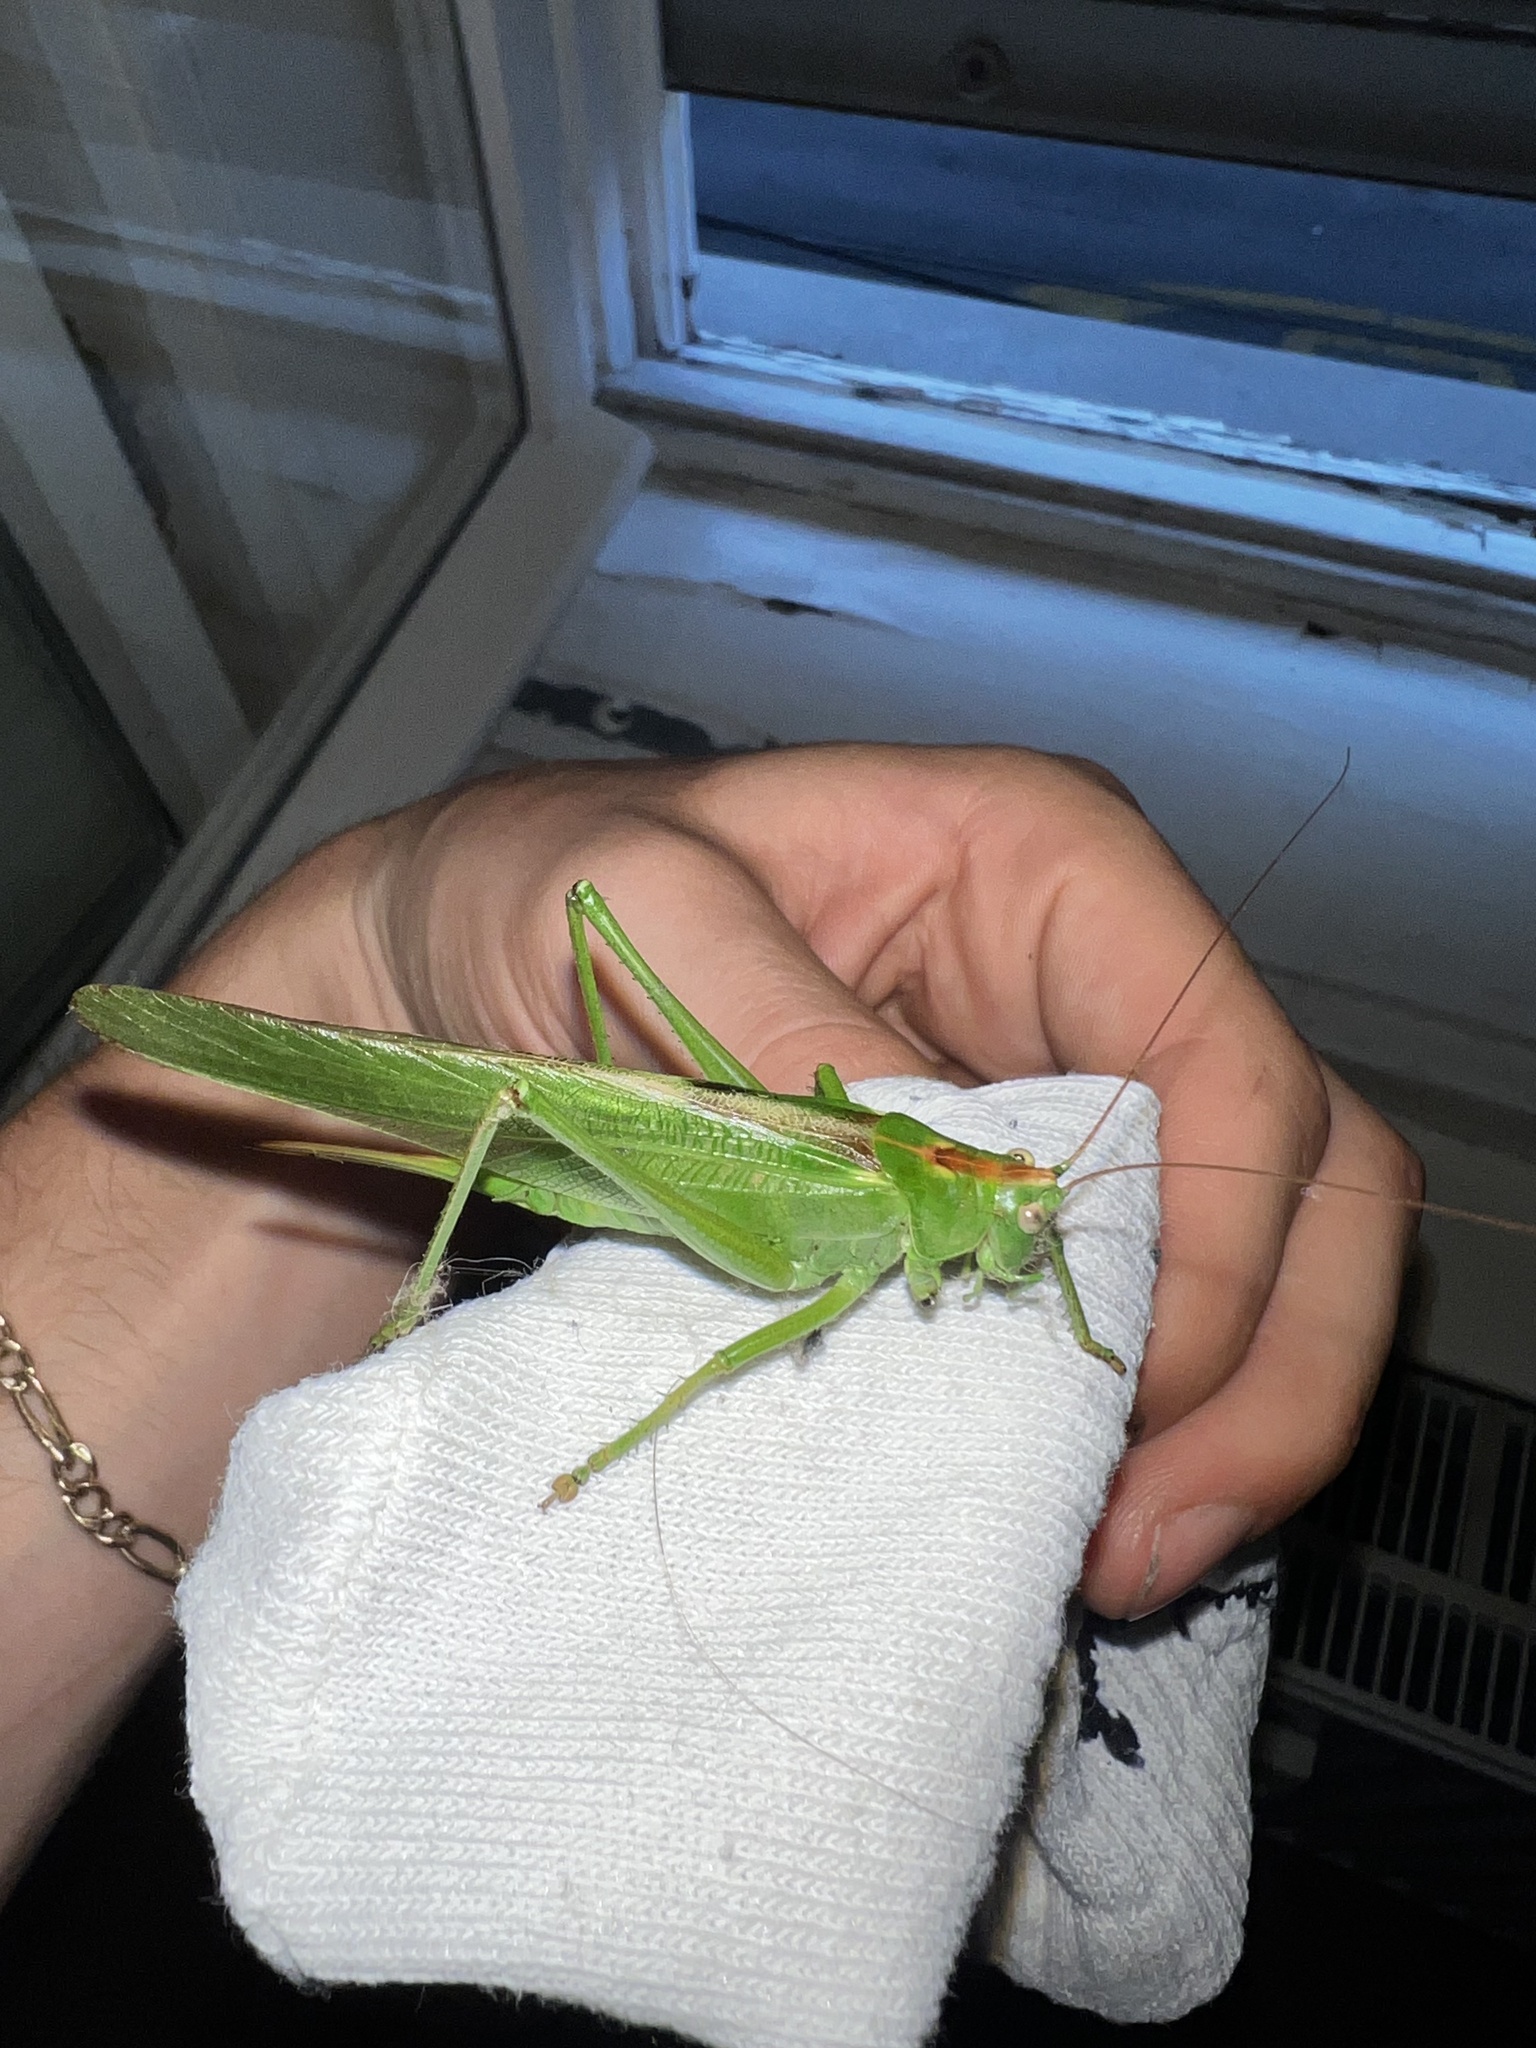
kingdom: Animalia
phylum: Arthropoda
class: Insecta
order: Orthoptera
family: Tettigoniidae
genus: Tettigonia
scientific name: Tettigonia viridissima
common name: Great green bush-cricket
